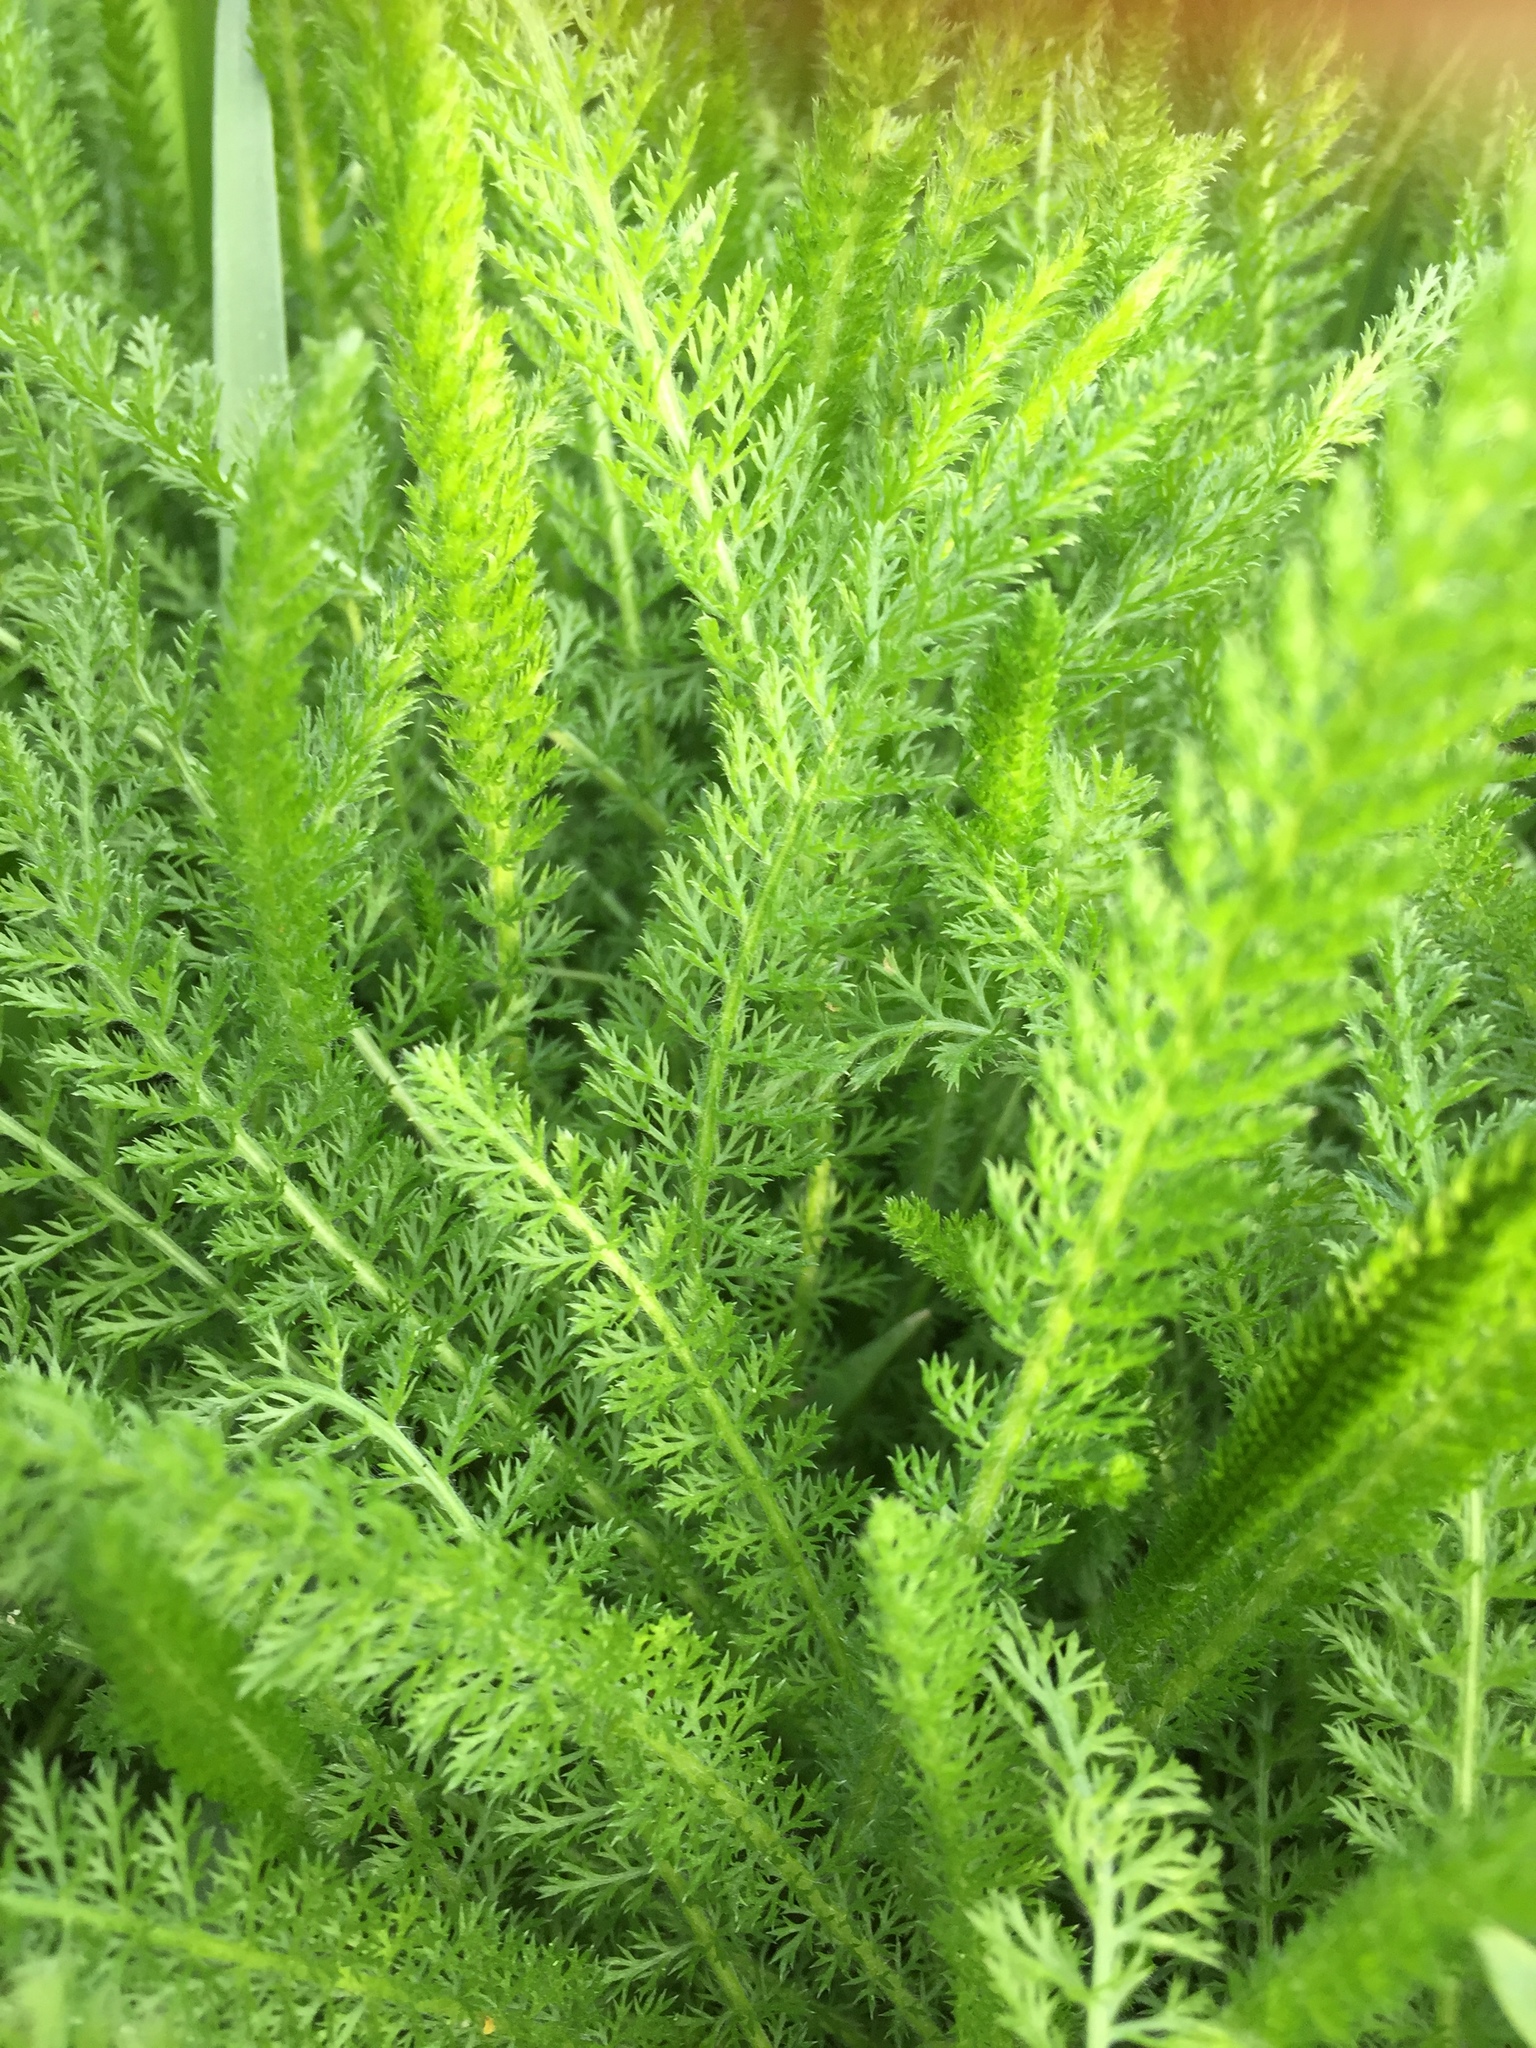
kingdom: Plantae
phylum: Tracheophyta
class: Magnoliopsida
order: Asterales
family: Asteraceae
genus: Achillea
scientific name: Achillea millefolium
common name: Yarrow
